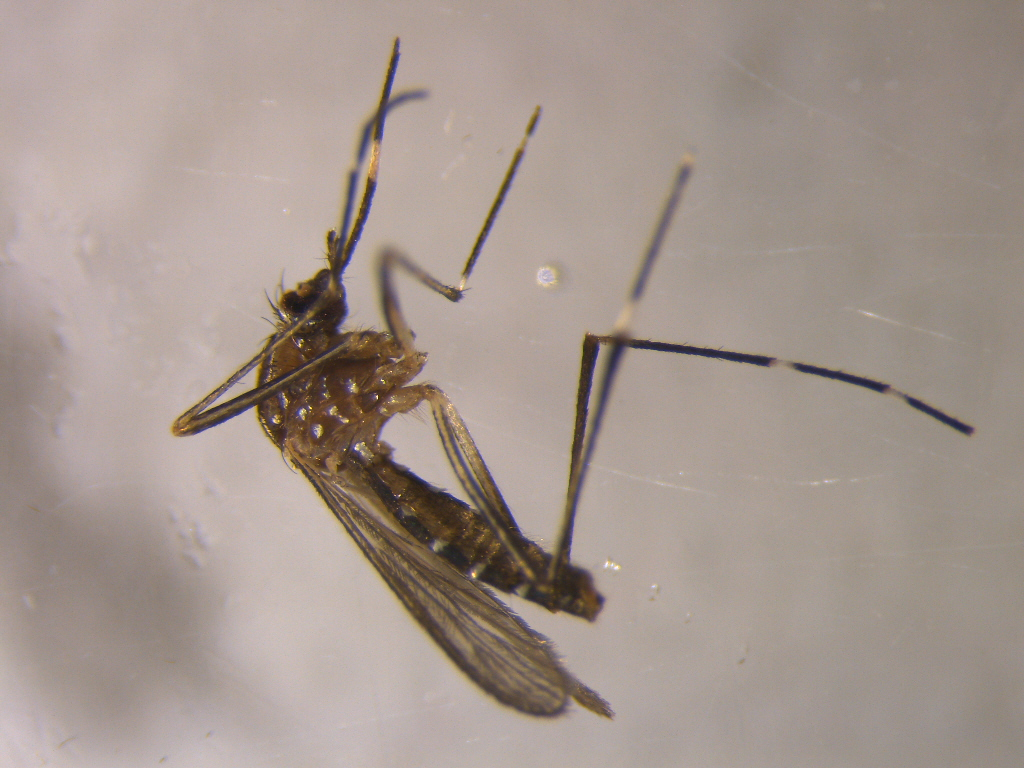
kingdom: Animalia
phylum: Arthropoda
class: Insecta
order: Diptera
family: Culicidae
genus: Aedes
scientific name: Aedes notoscriptus
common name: Australian backyard mosquito
